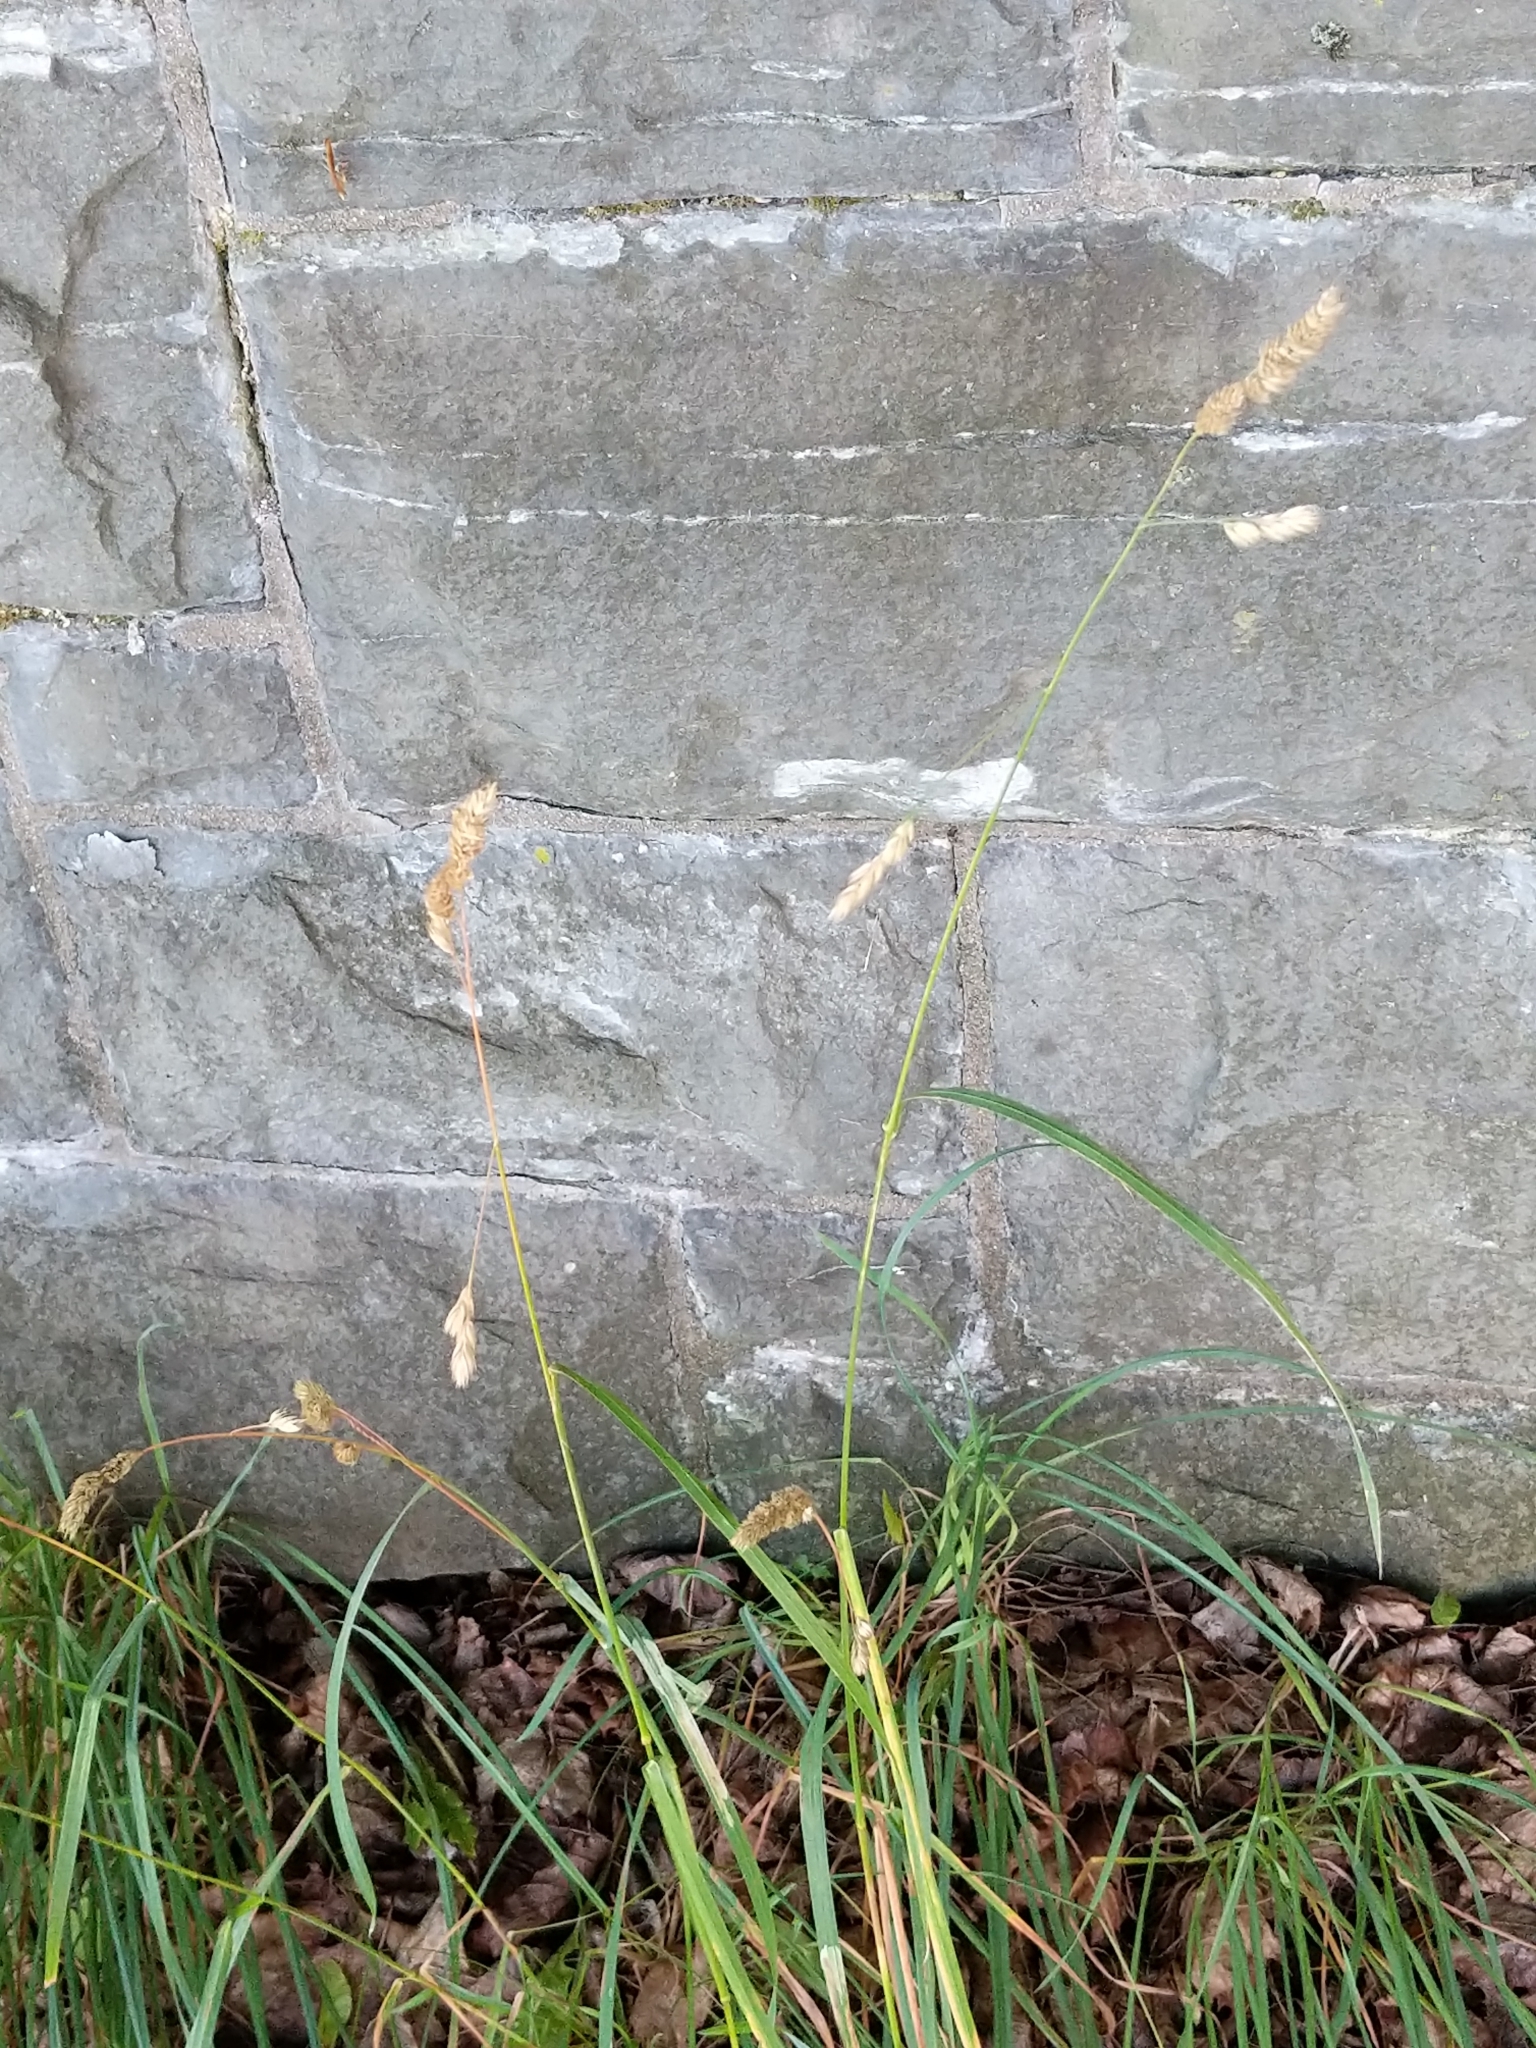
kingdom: Plantae
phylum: Tracheophyta
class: Liliopsida
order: Poales
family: Poaceae
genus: Dactylis
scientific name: Dactylis glomerata
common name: Orchardgrass
